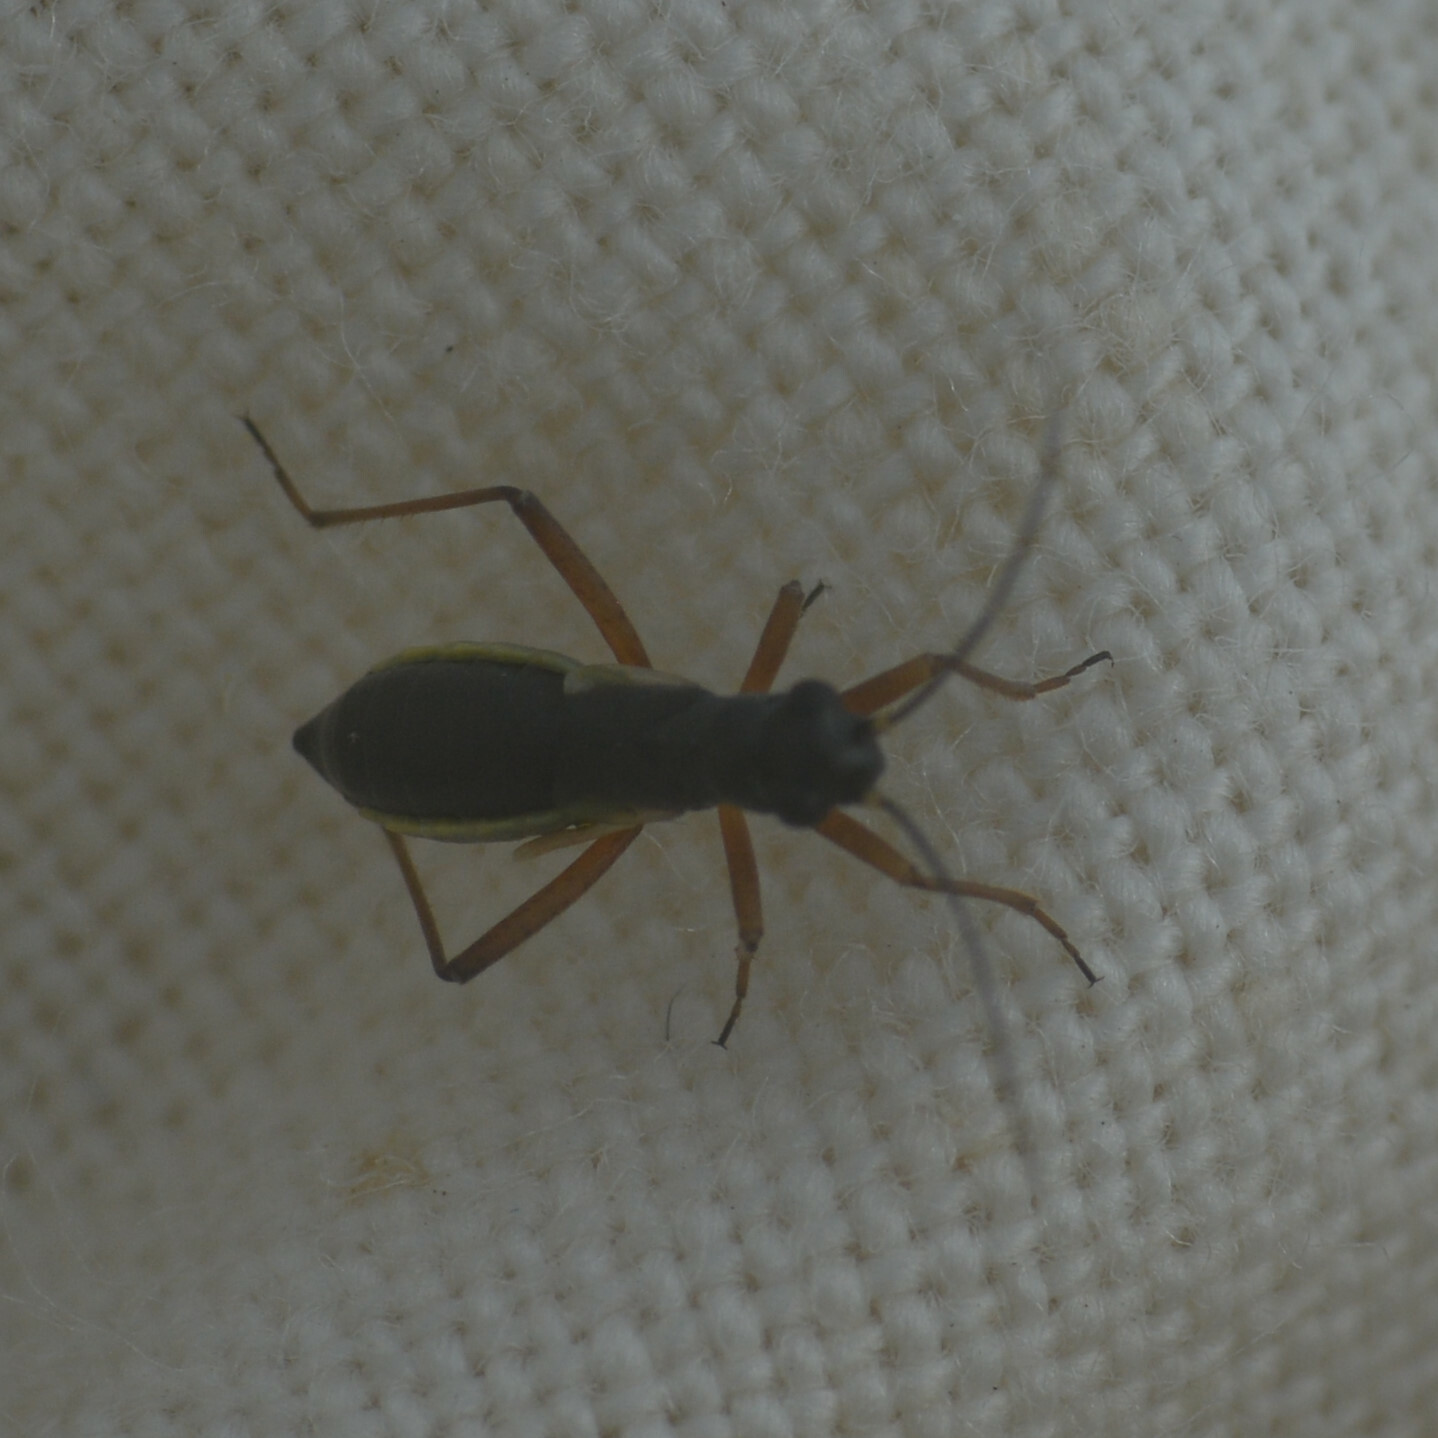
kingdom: Animalia
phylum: Arthropoda
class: Insecta
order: Hemiptera
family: Miridae
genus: Pithanus
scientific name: Pithanus maerkelii
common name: Plant bug
